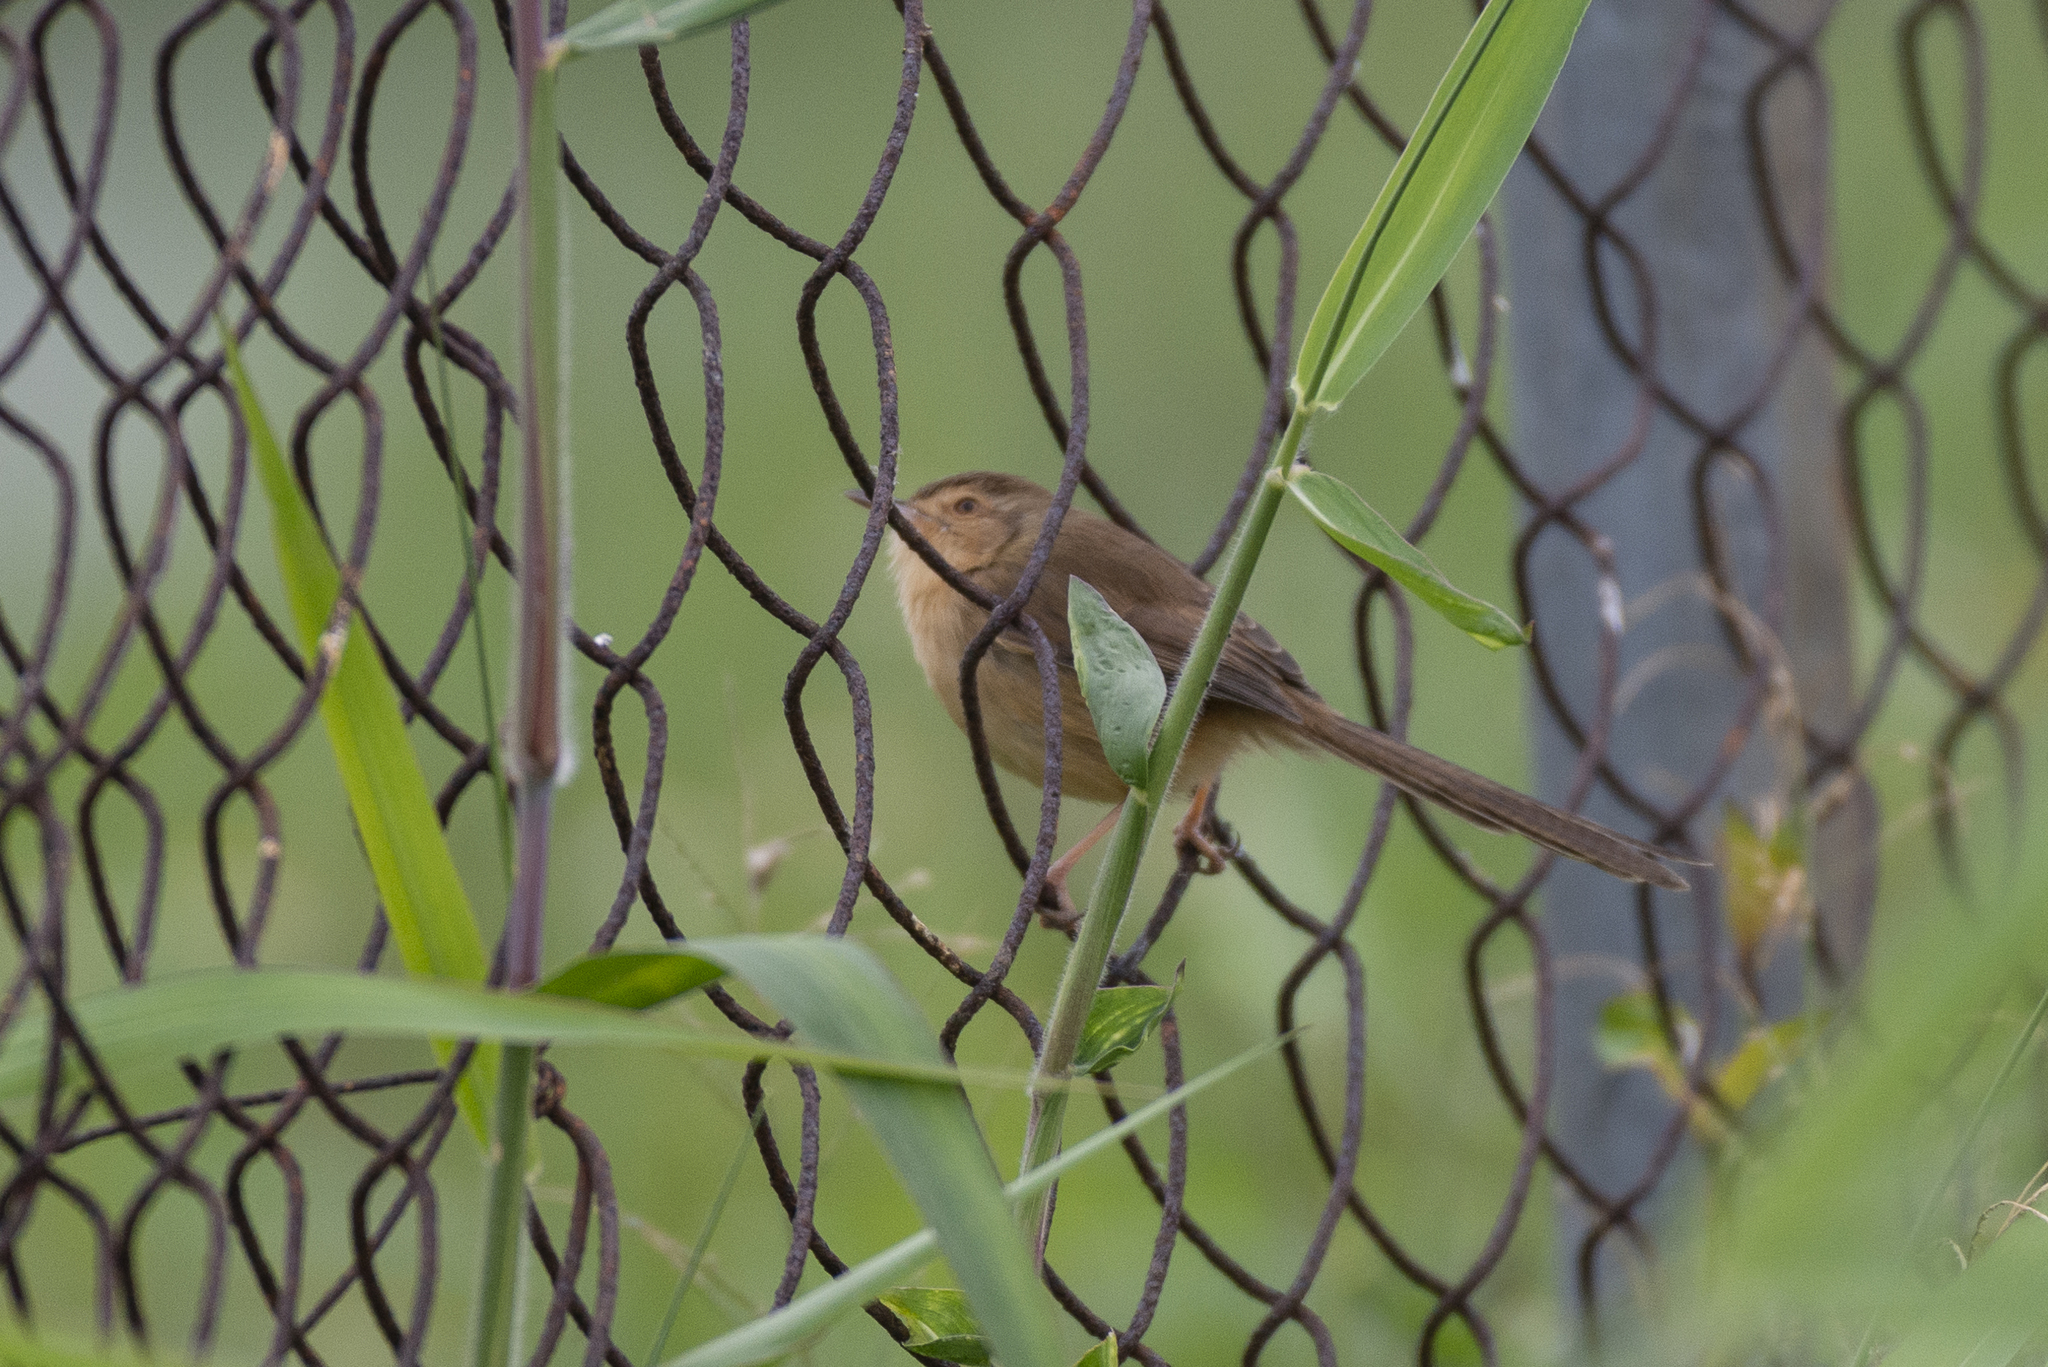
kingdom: Animalia
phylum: Chordata
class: Aves
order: Passeriformes
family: Cisticolidae
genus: Prinia
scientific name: Prinia inornata
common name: Plain prinia
